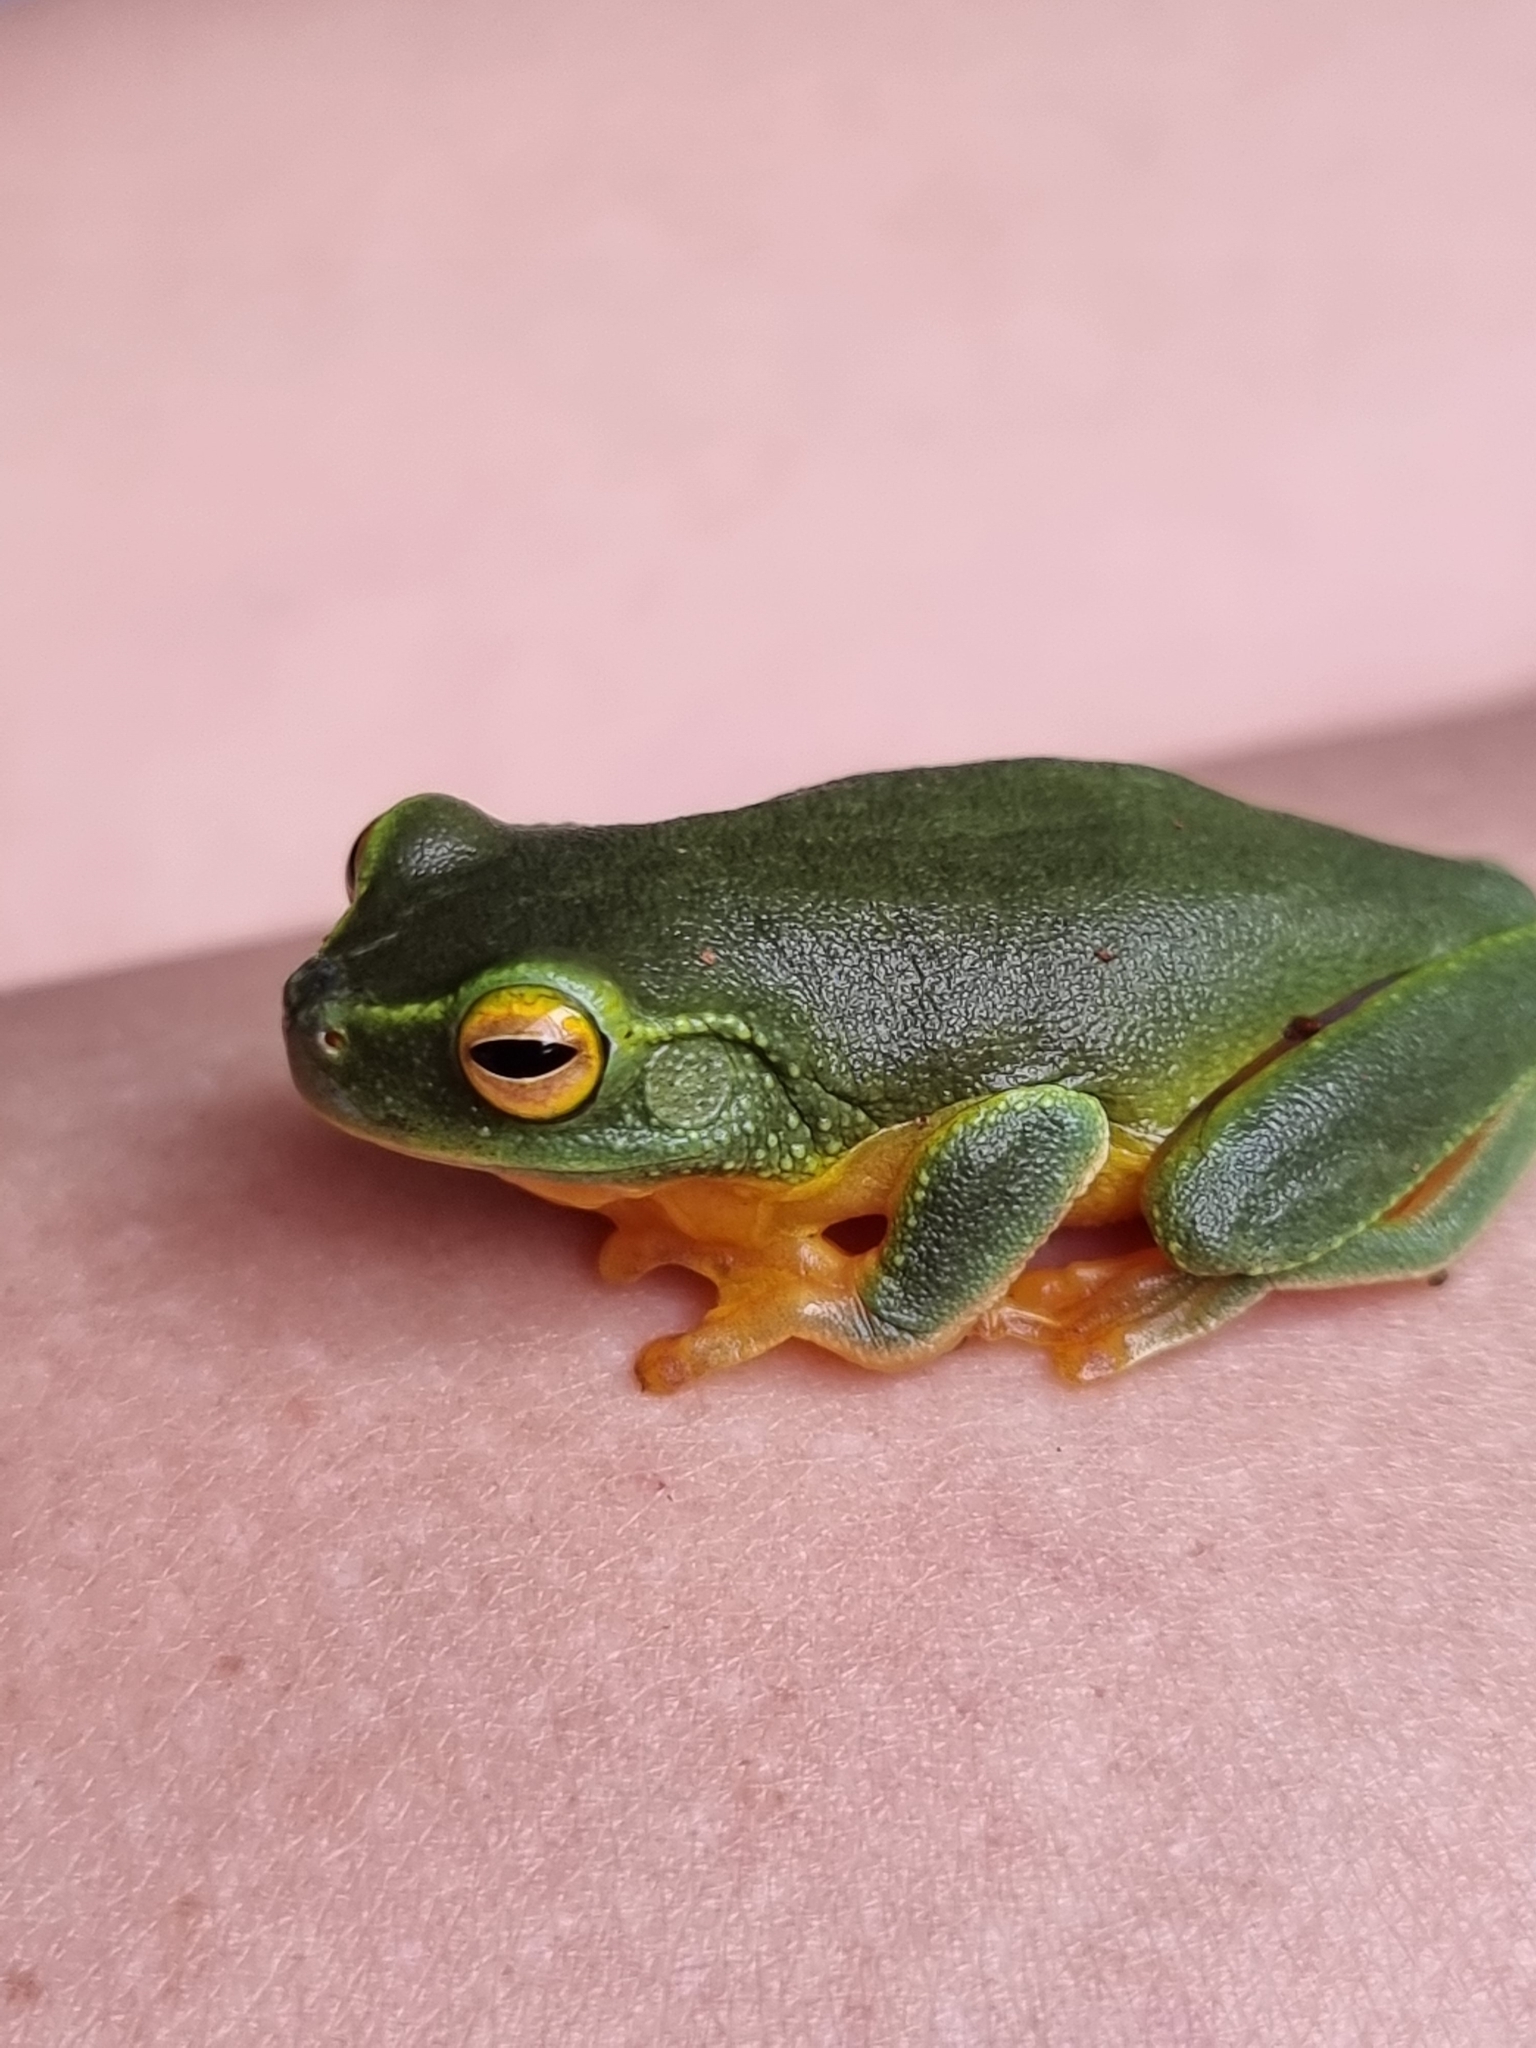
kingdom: Animalia
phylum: Chordata
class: Amphibia
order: Anura
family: Pelodryadidae
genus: Ranoidea
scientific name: Ranoidea gracilenta
